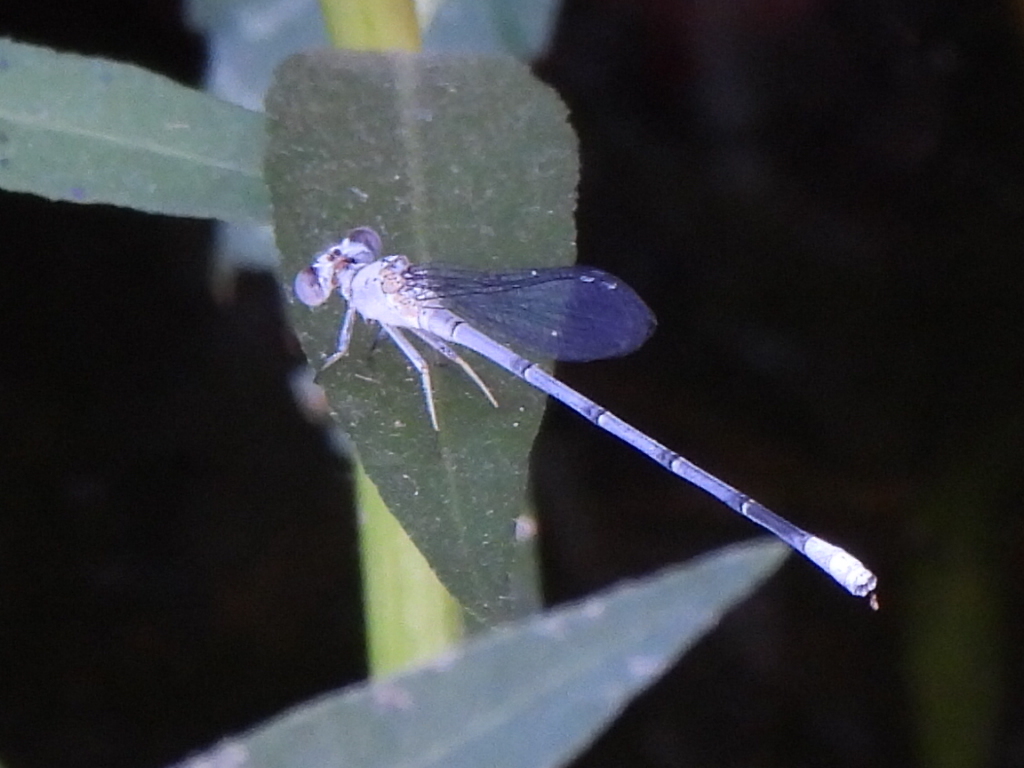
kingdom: Animalia
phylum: Arthropoda
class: Insecta
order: Odonata
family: Coenagrionidae
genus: Argia
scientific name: Argia moesta
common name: Powdered dancer
